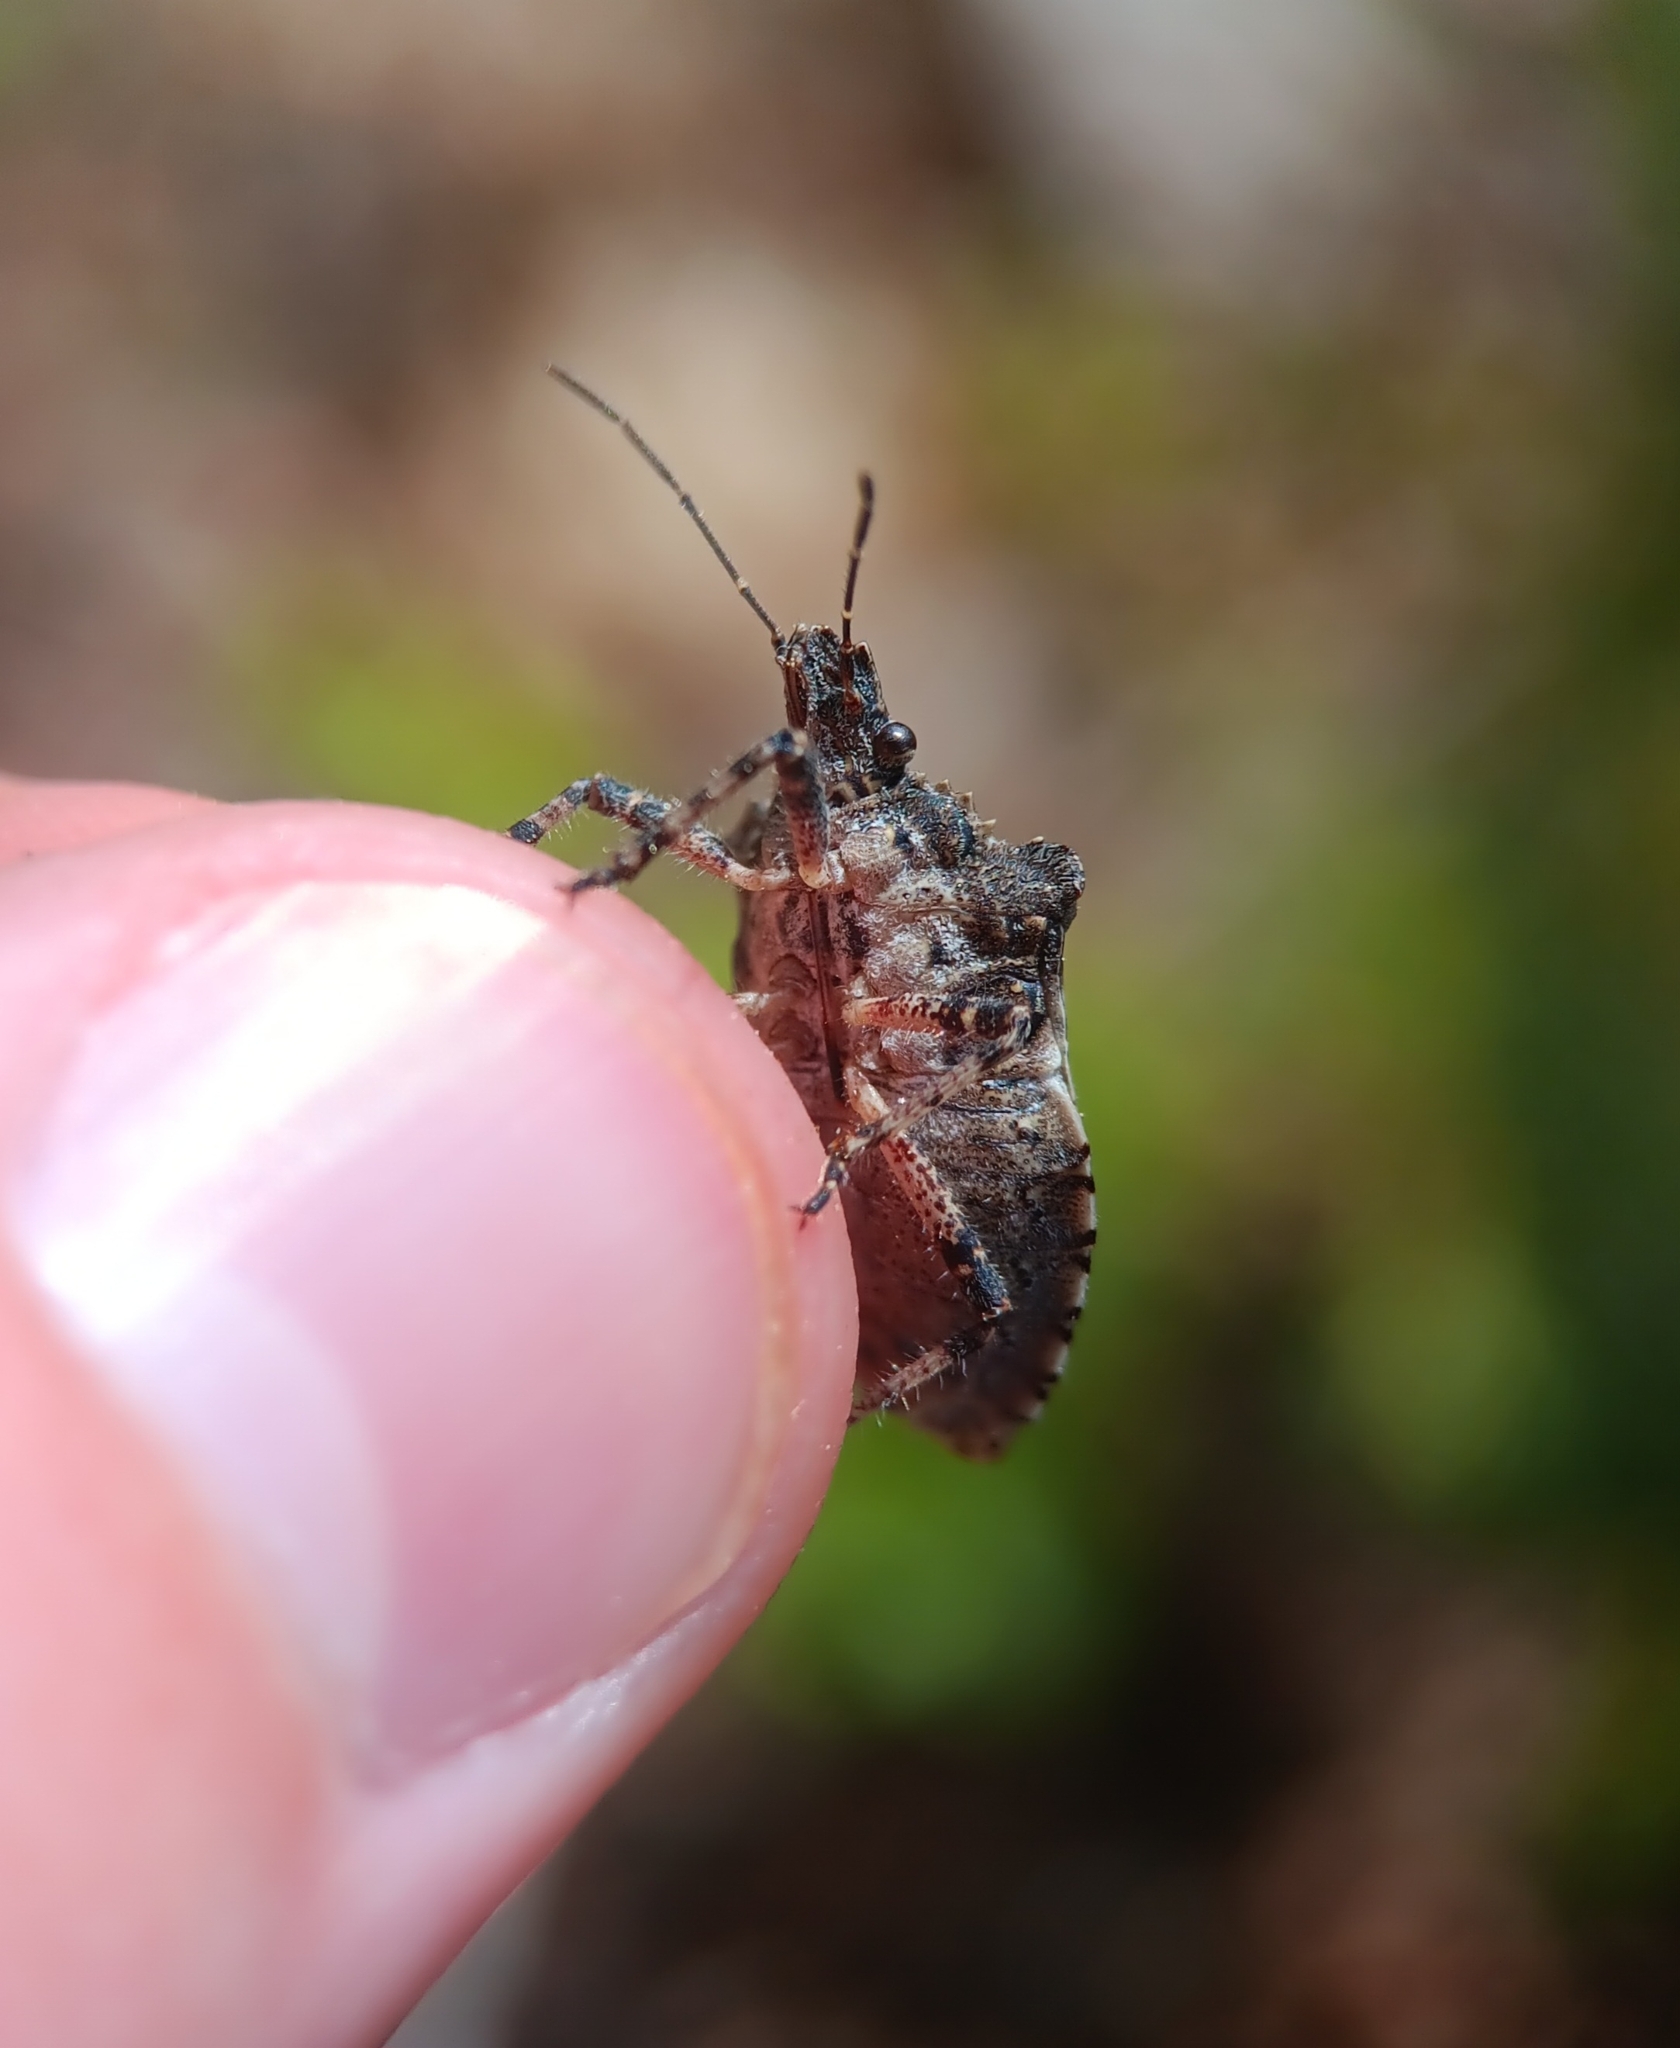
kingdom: Animalia
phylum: Arthropoda
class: Insecta
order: Hemiptera
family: Pentatomidae
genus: Brochymena
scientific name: Brochymena arborea
